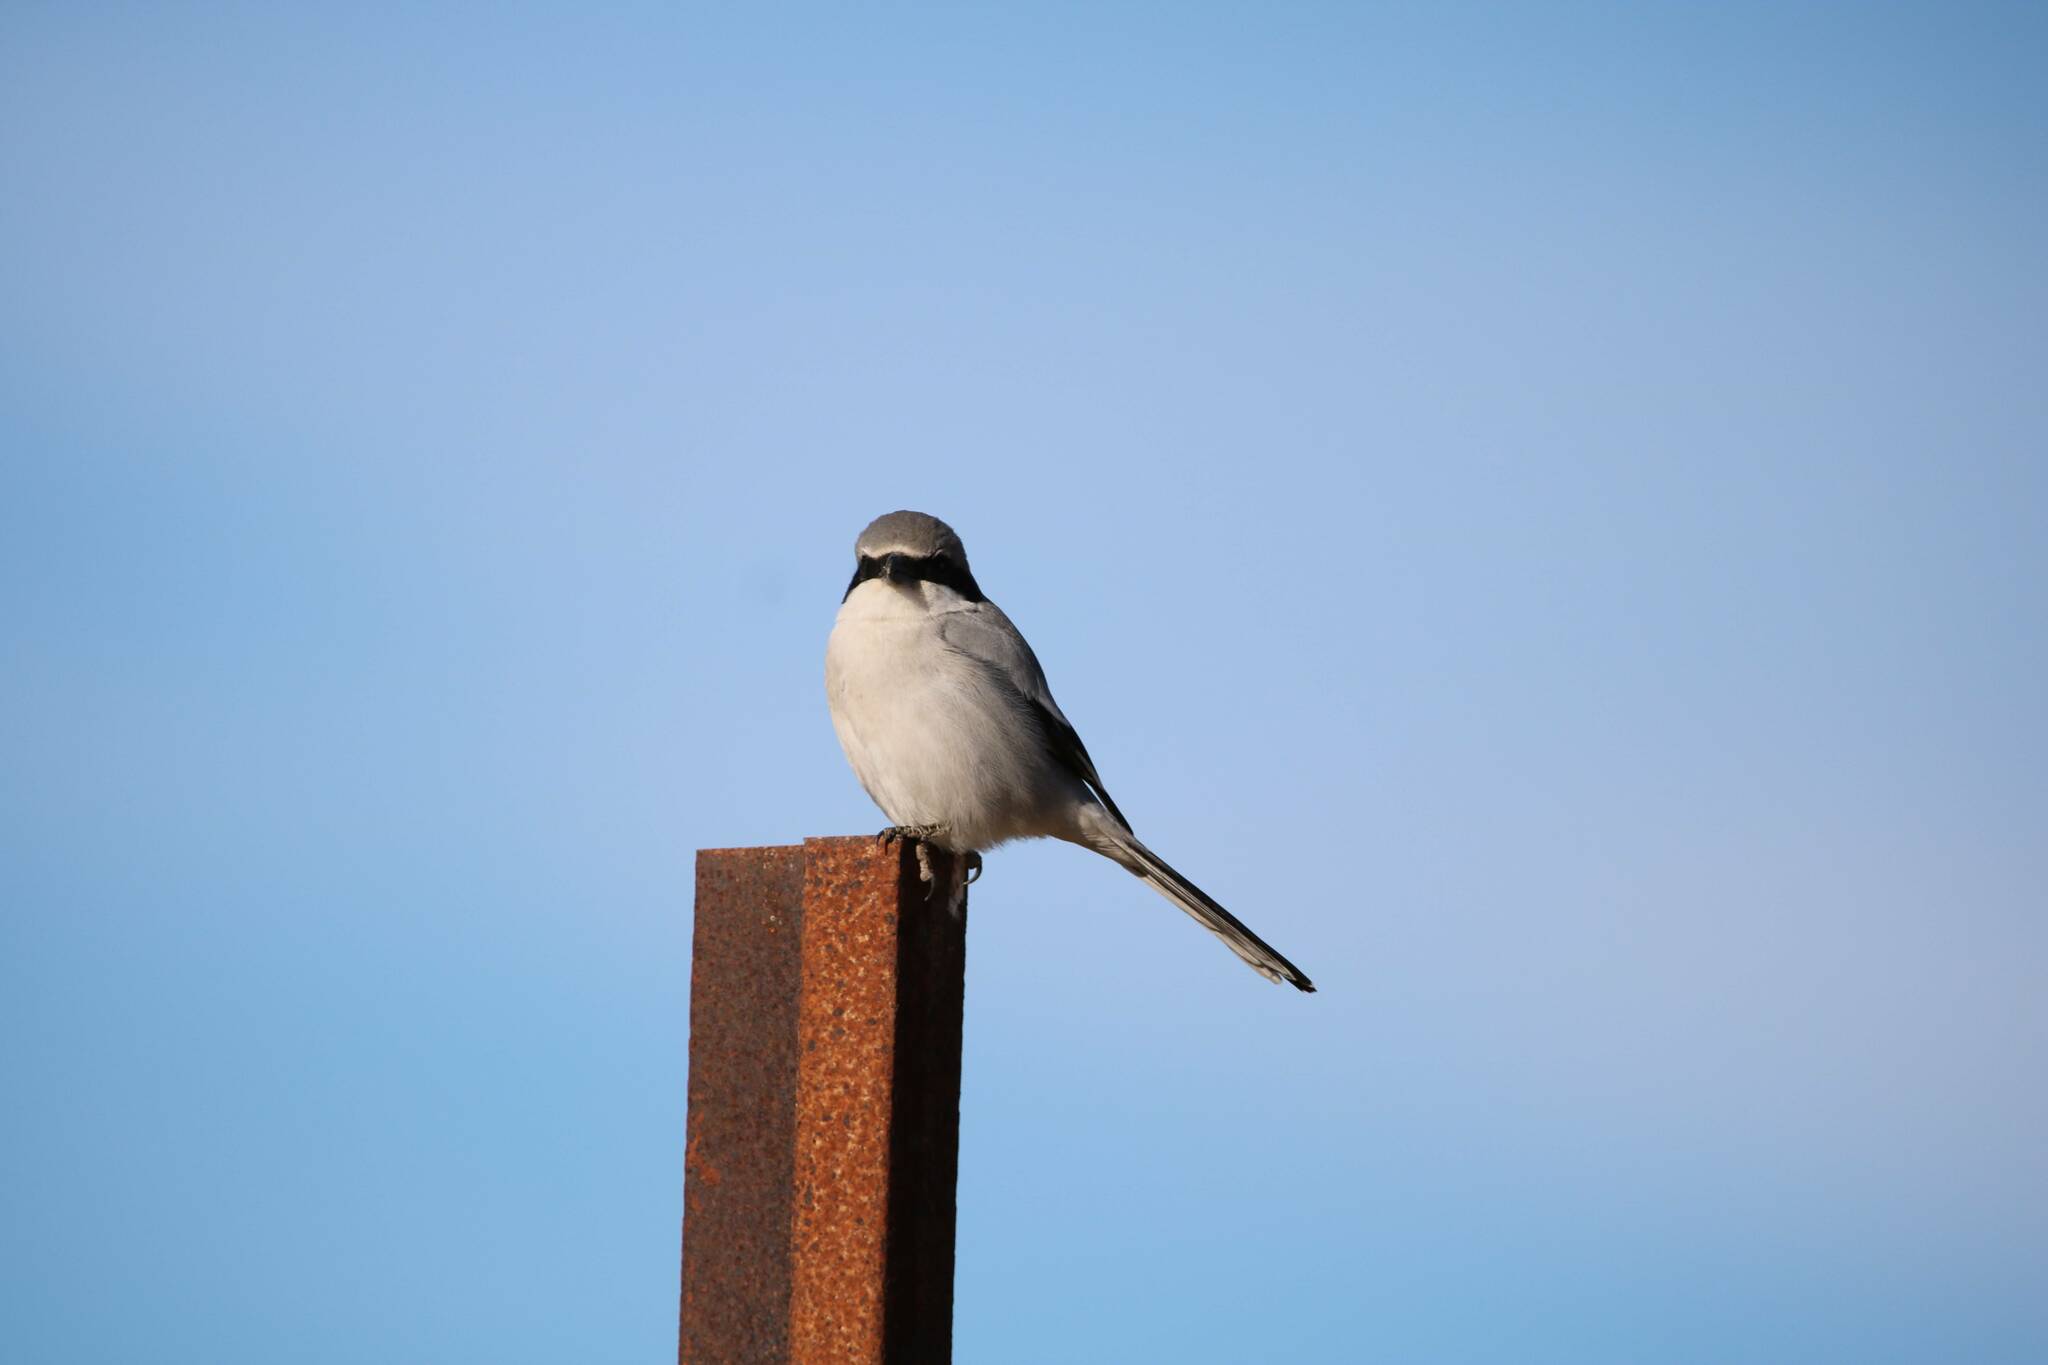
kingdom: Animalia
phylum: Chordata
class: Aves
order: Passeriformes
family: Laniidae
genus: Lanius
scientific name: Lanius excubitor
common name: Great grey shrike
